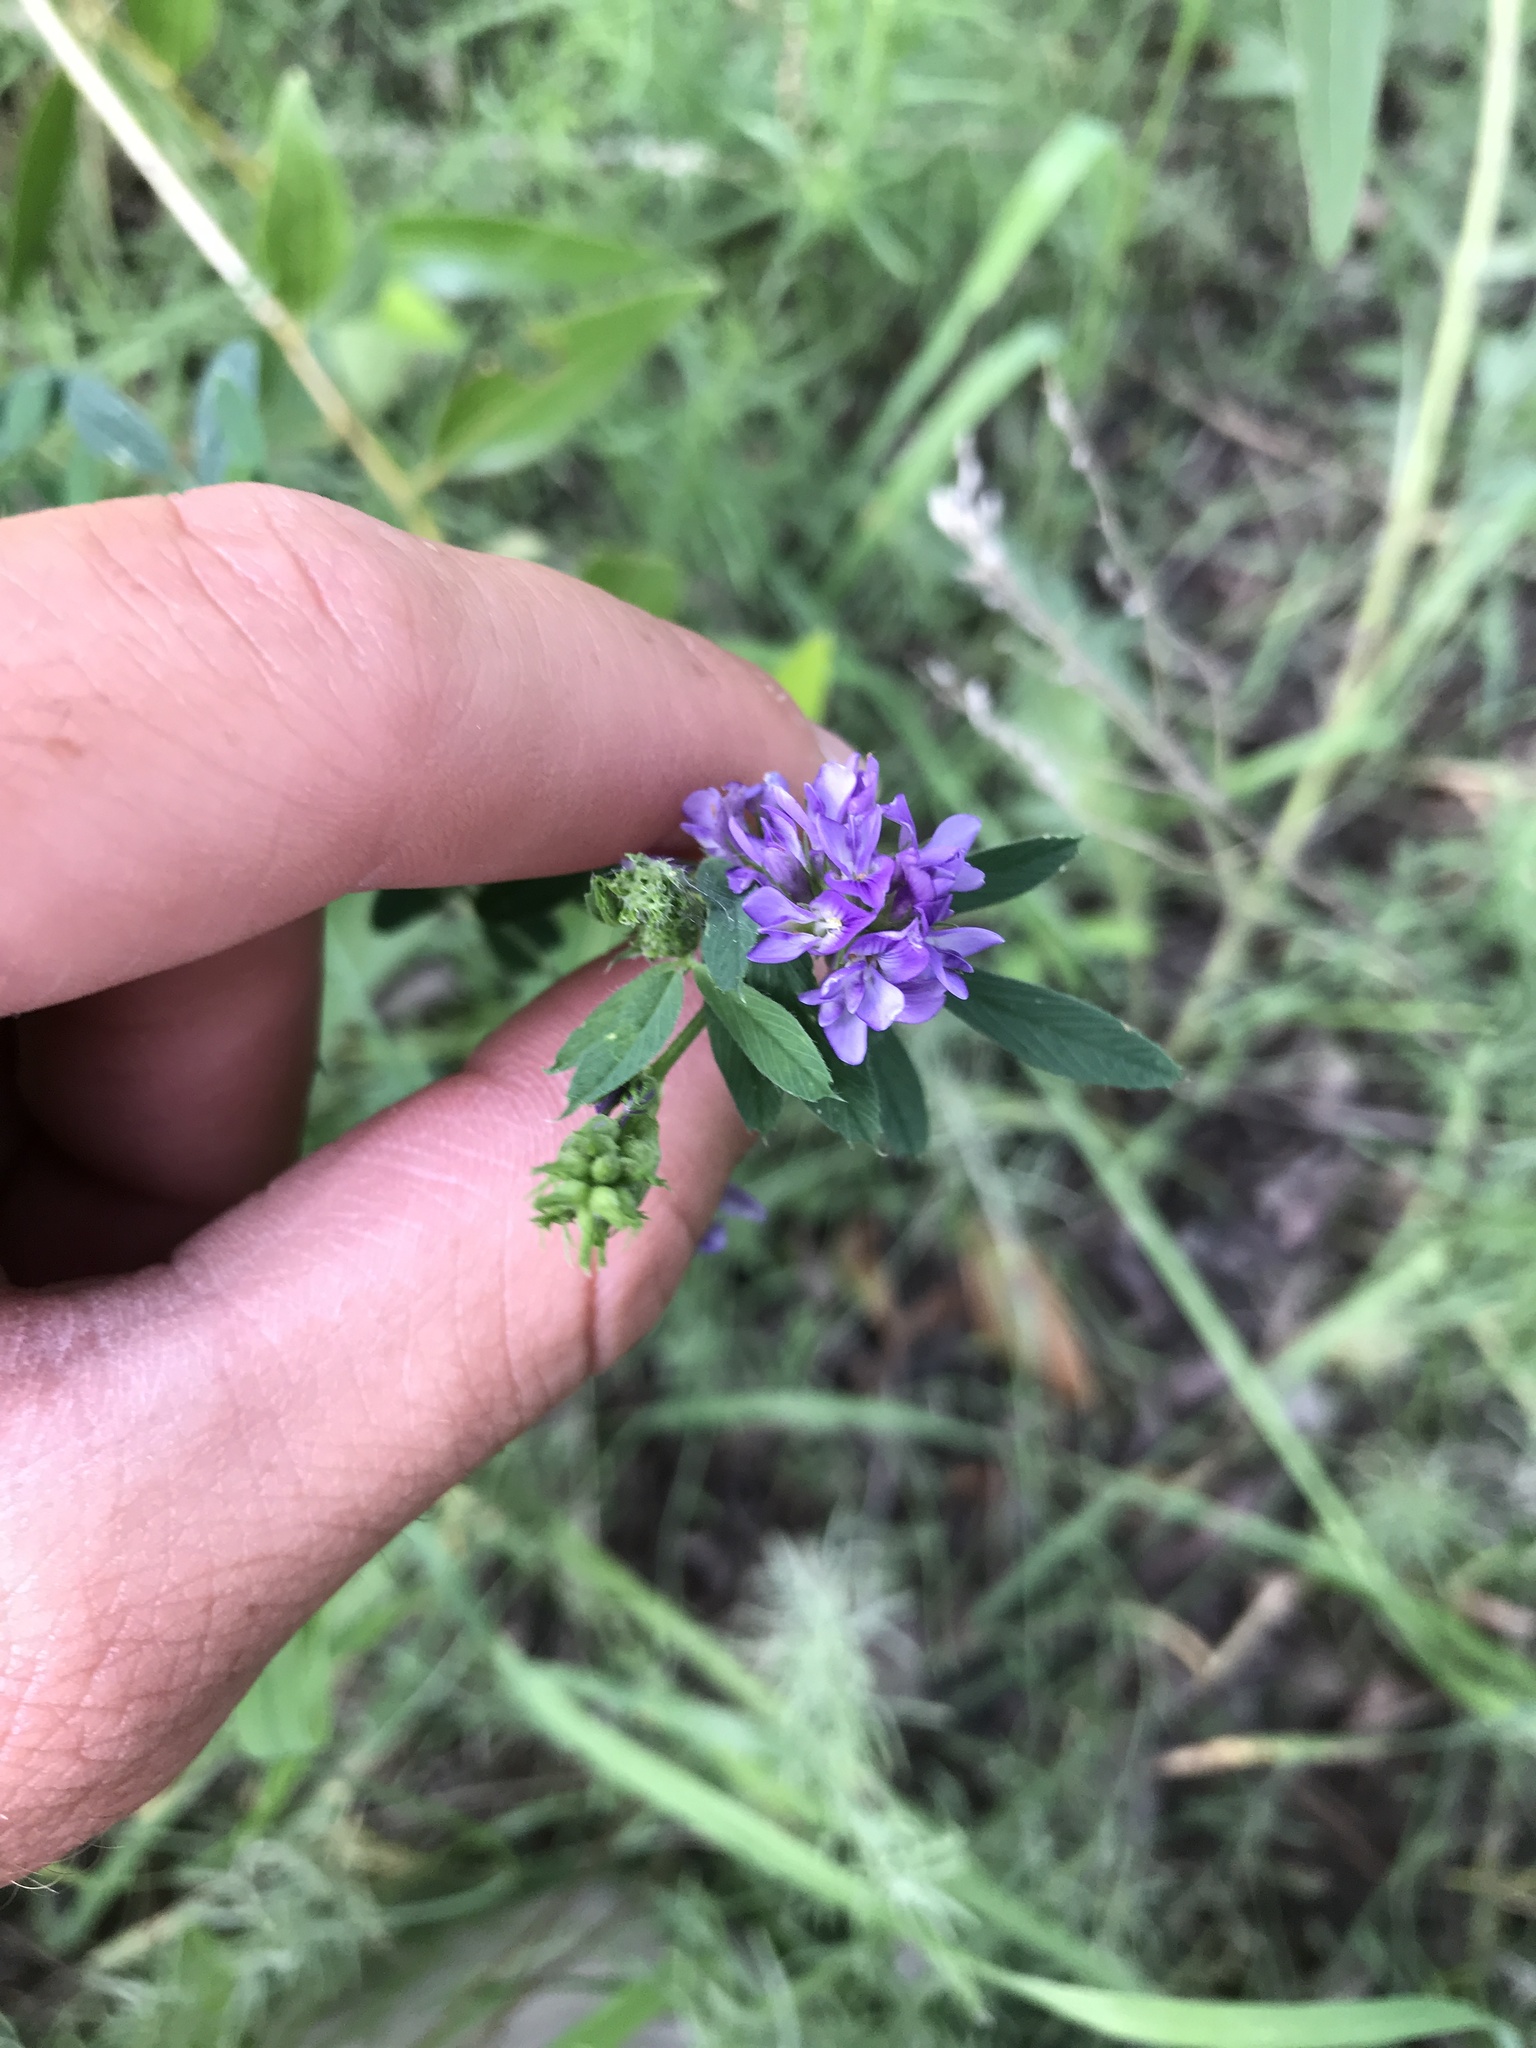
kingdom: Plantae
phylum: Tracheophyta
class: Magnoliopsida
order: Fabales
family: Fabaceae
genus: Medicago
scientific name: Medicago sativa
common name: Alfalfa
